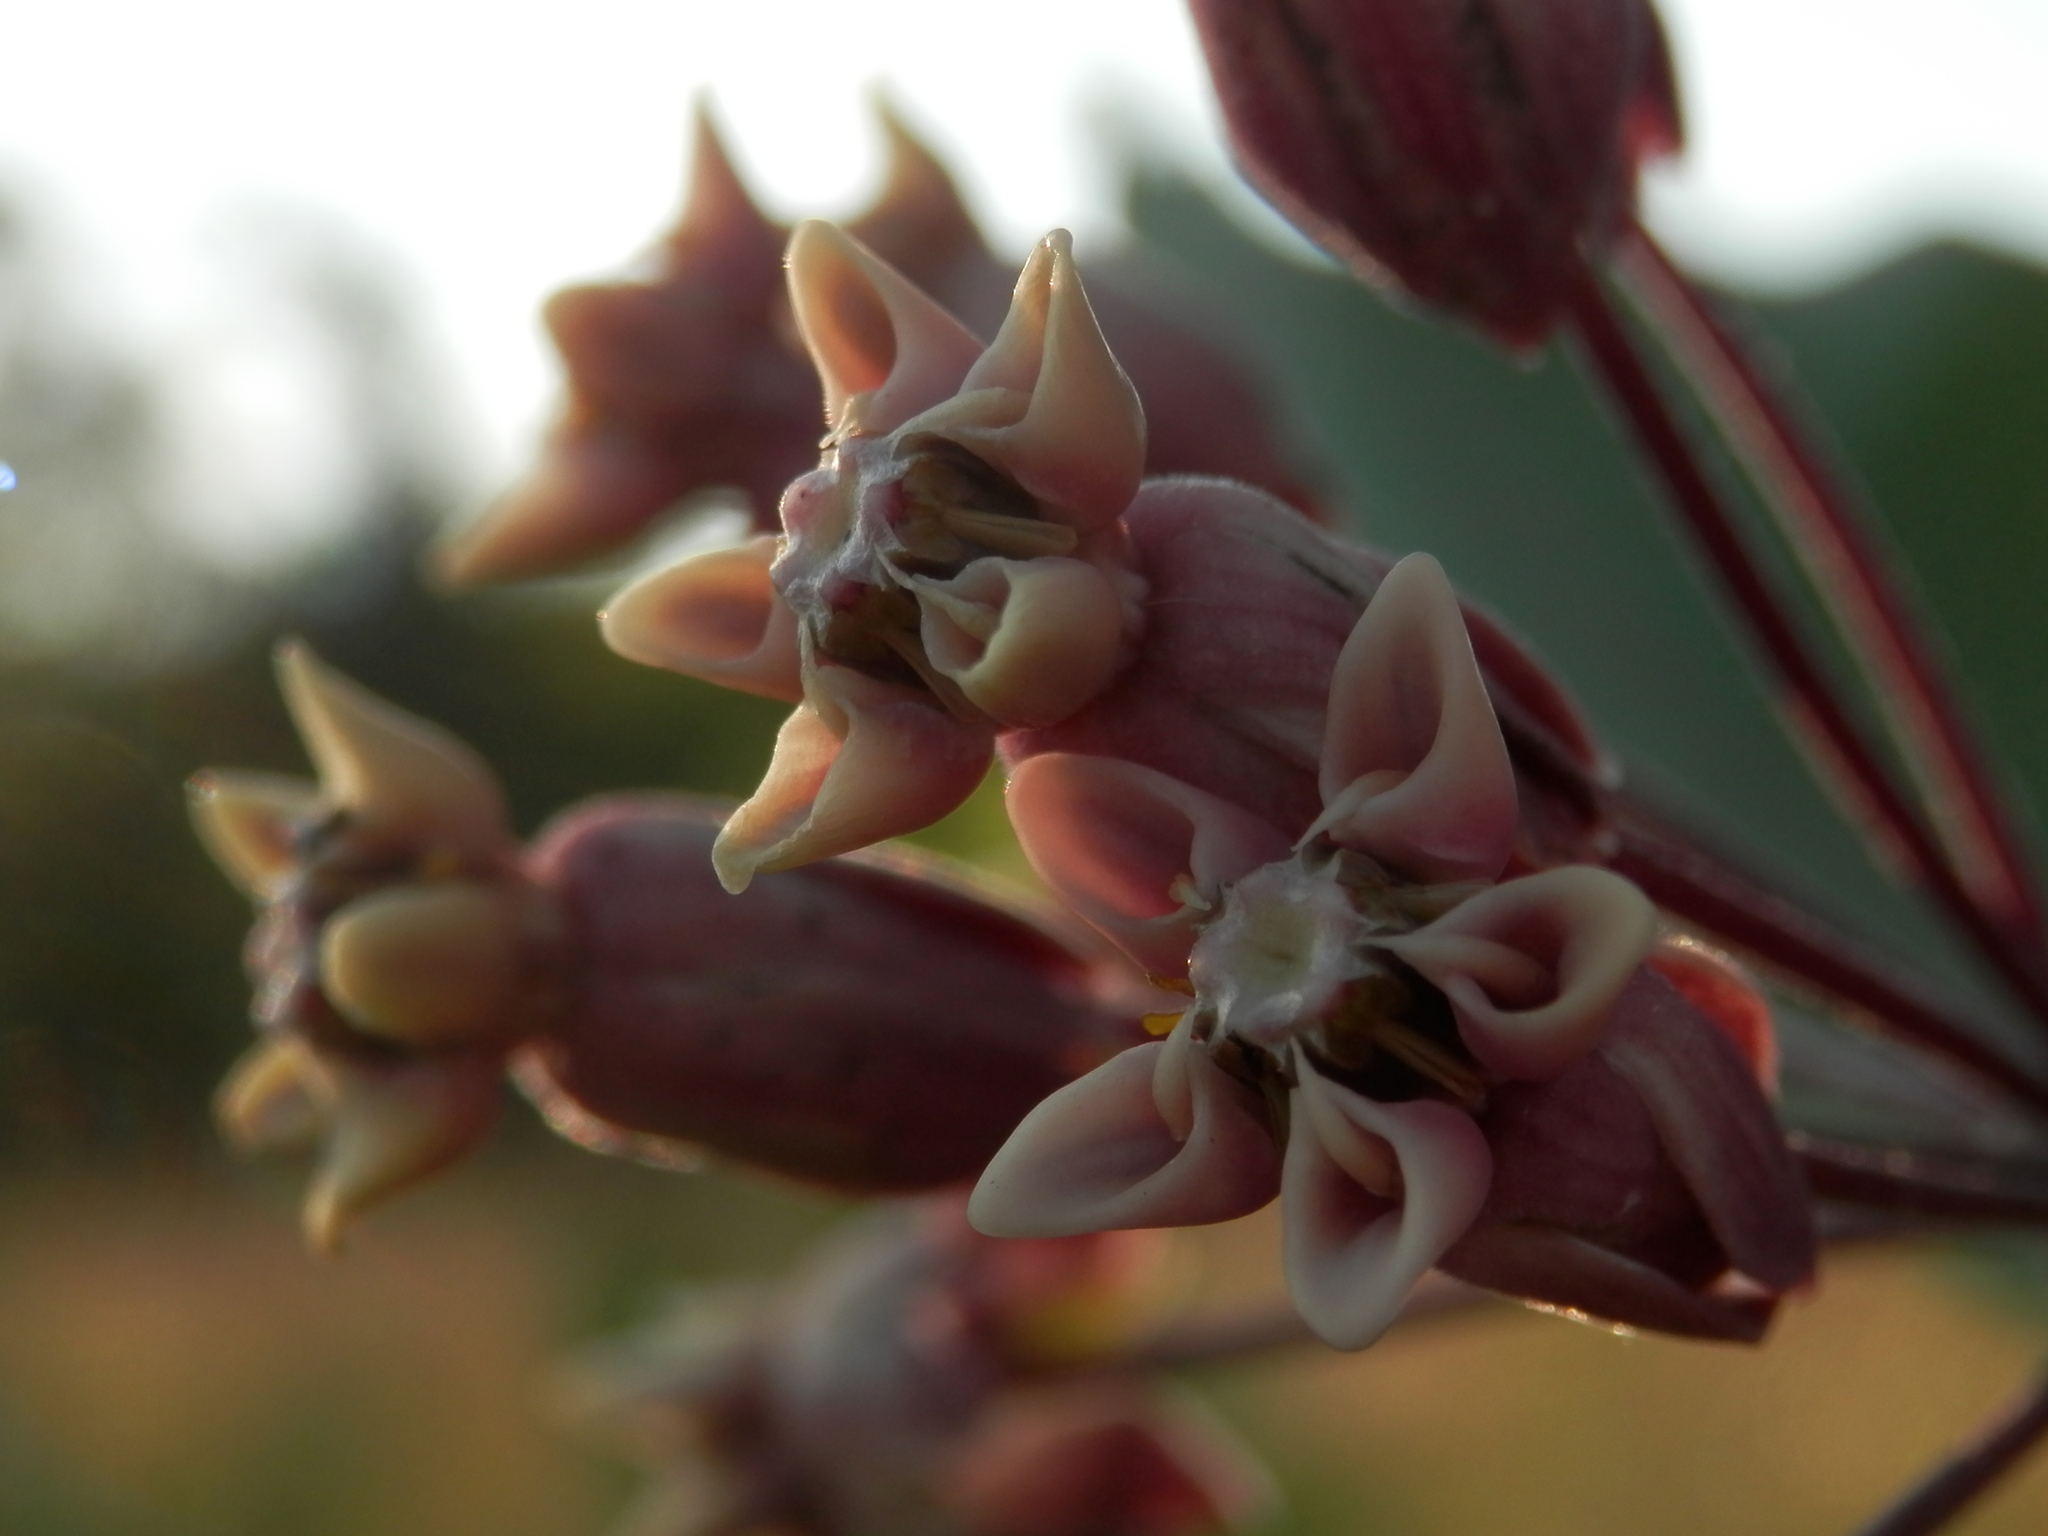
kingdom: Plantae
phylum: Tracheophyta
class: Magnoliopsida
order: Gentianales
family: Apocynaceae
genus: Asclepias
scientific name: Asclepias syriaca
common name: Common milkweed
